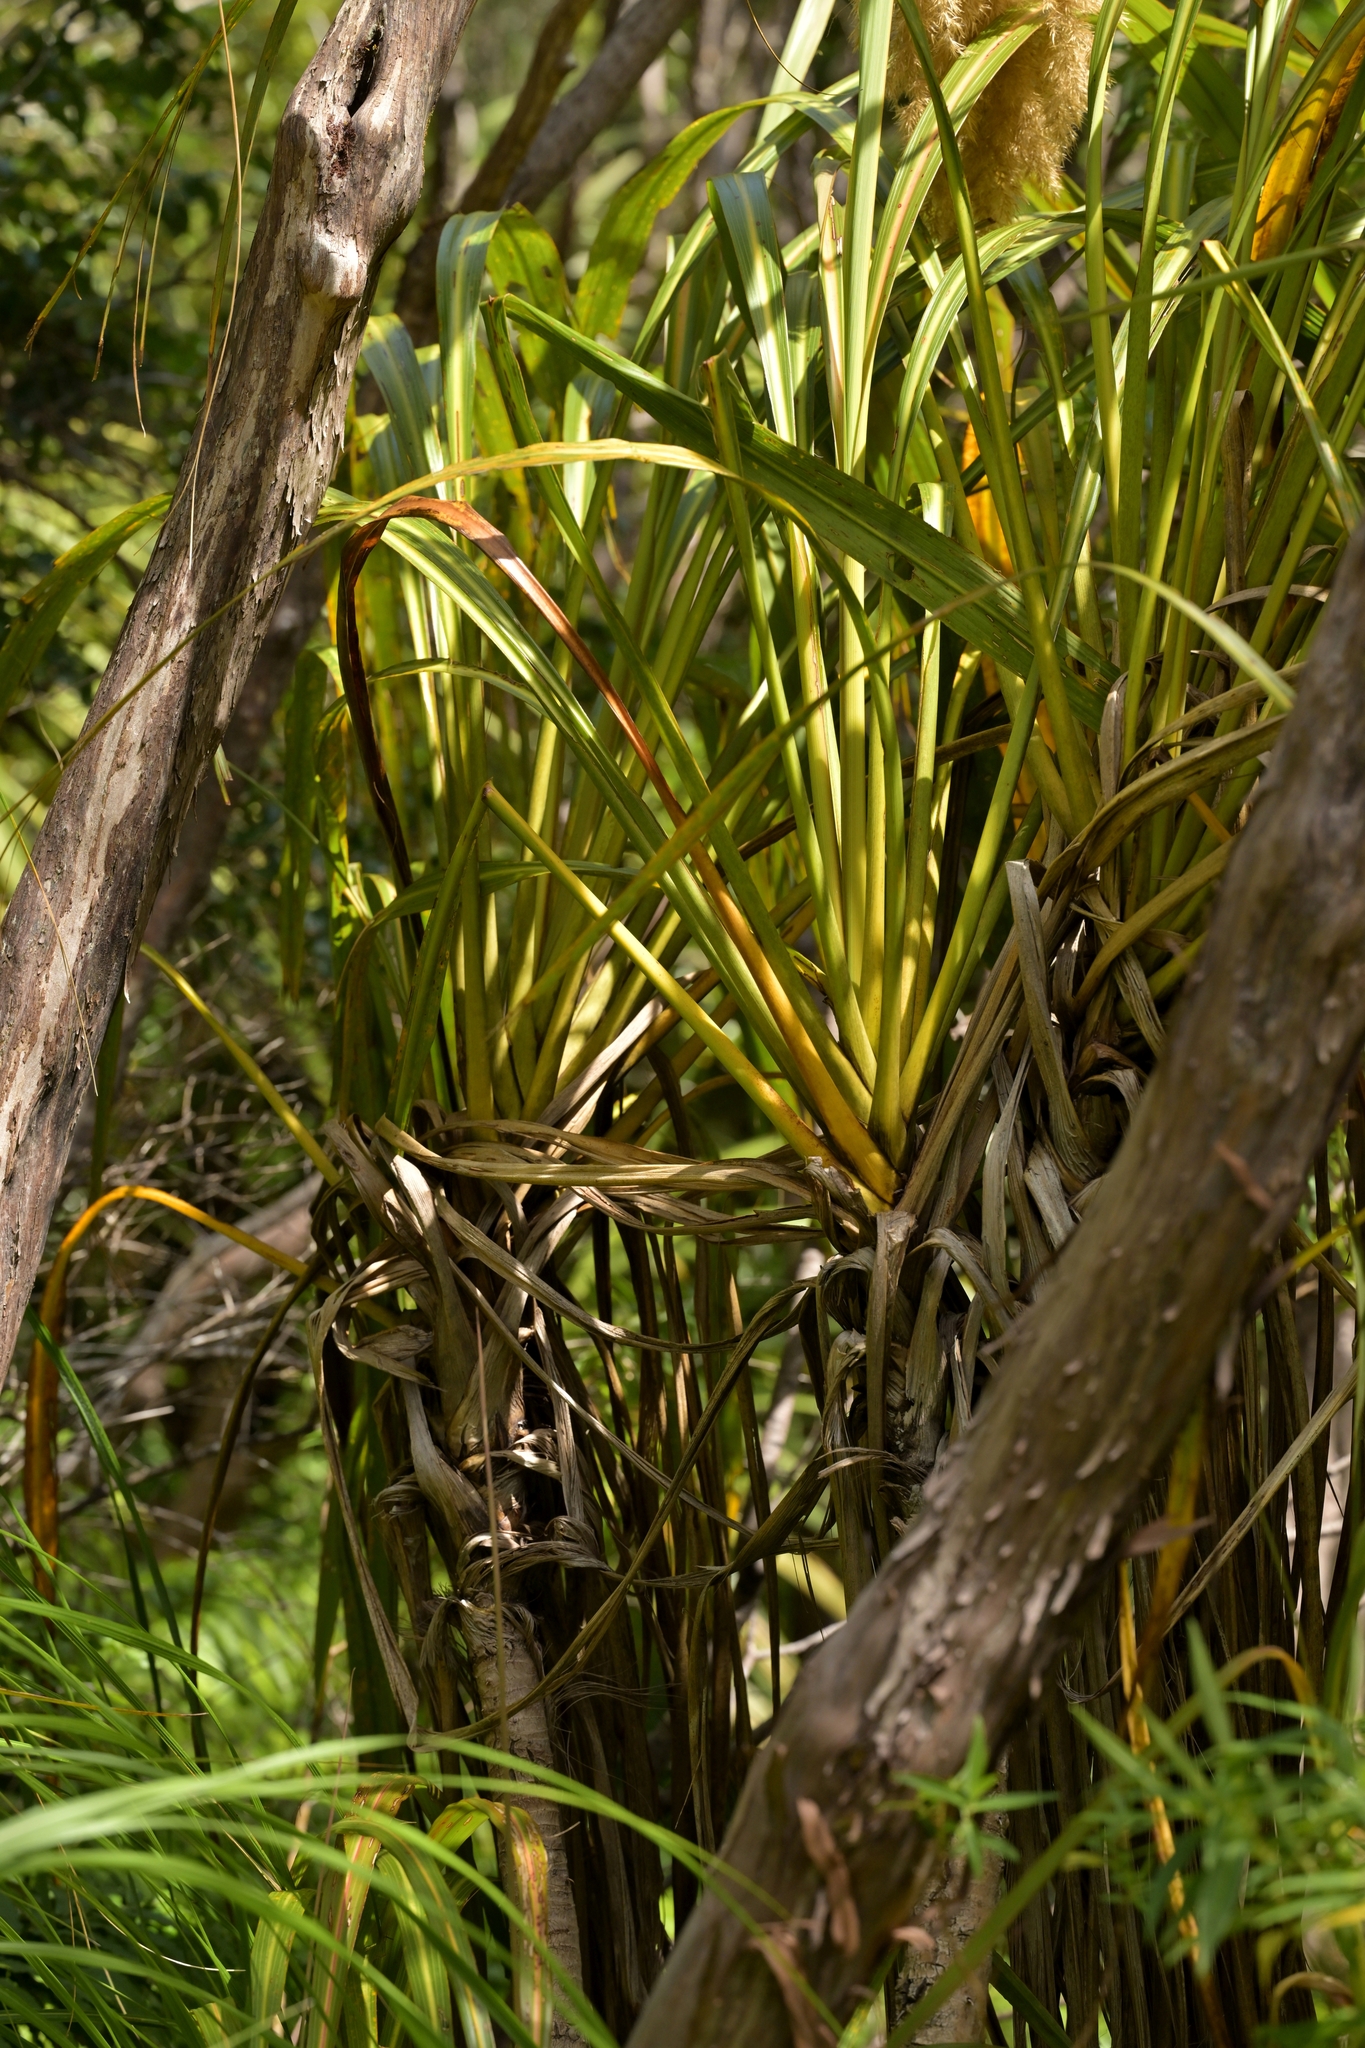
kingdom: Plantae
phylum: Tracheophyta
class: Liliopsida
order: Asparagales
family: Asparagaceae
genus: Cordyline
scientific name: Cordyline banksii
